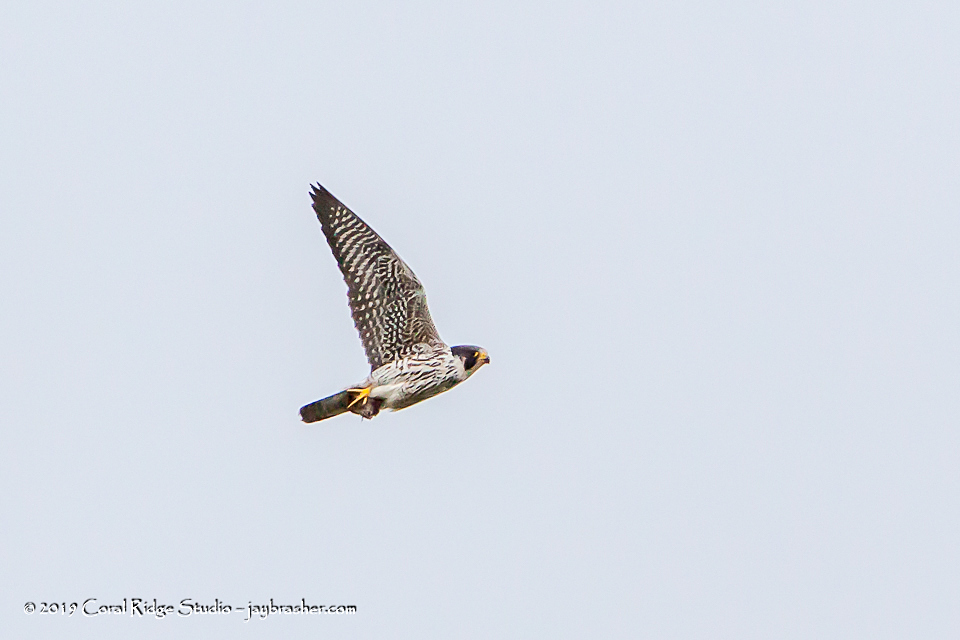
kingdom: Animalia
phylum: Chordata
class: Aves
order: Falconiformes
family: Falconidae
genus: Falco
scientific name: Falco peregrinus
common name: Peregrine falcon
